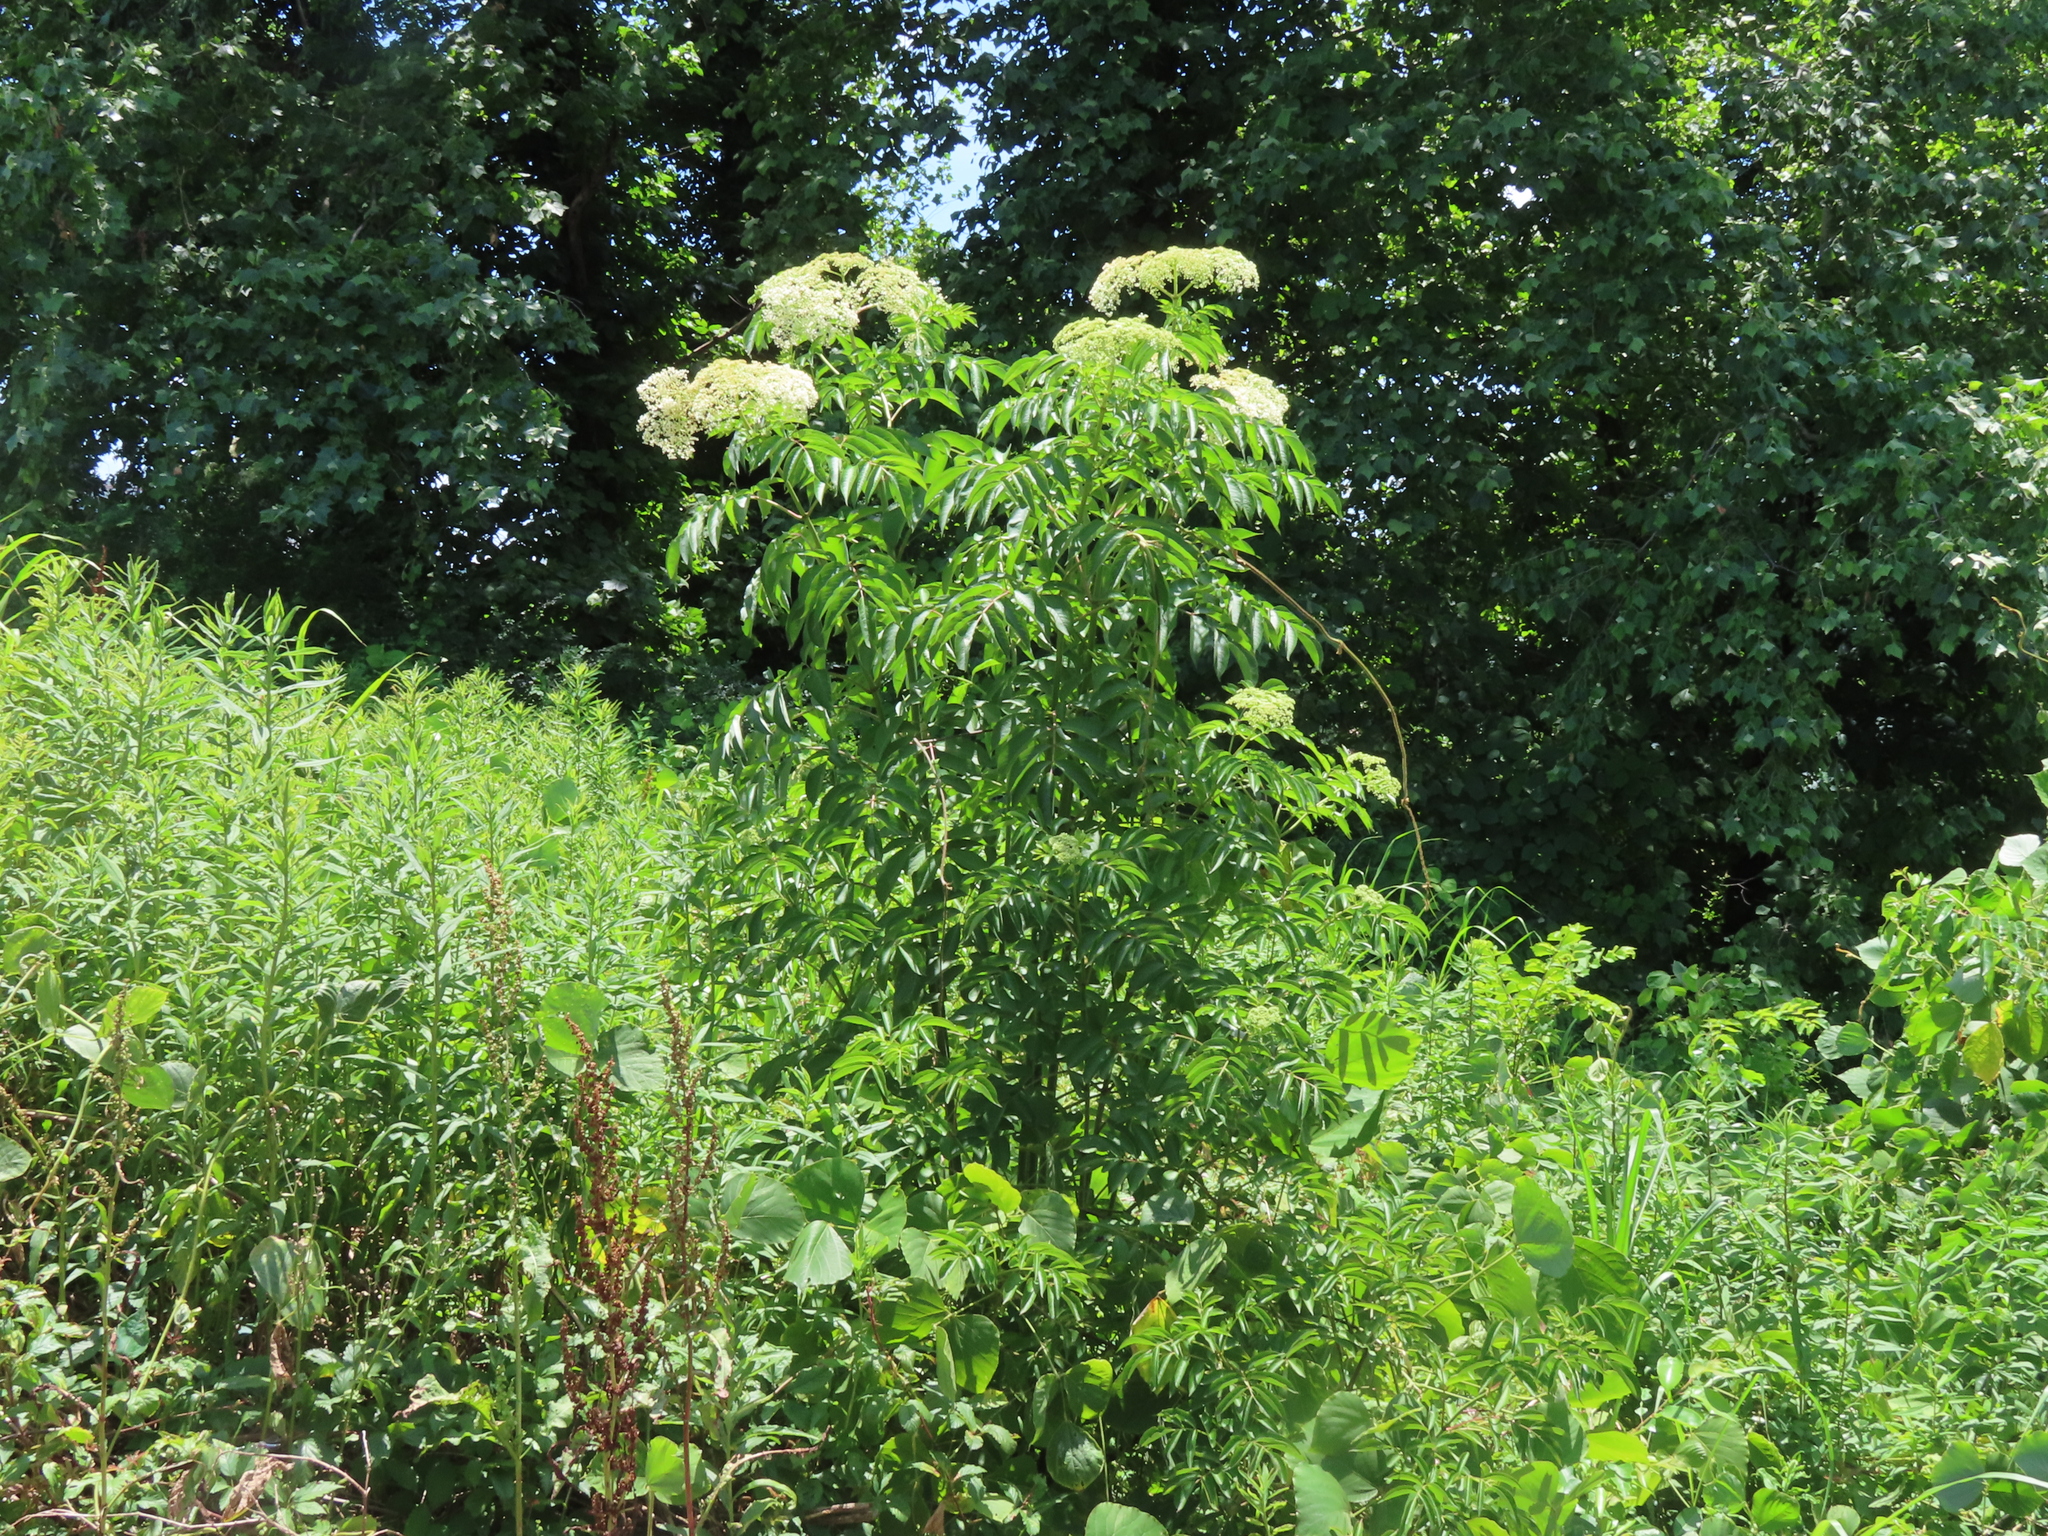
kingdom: Plantae
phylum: Tracheophyta
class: Magnoliopsida
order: Dipsacales
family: Viburnaceae
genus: Sambucus
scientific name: Sambucus canadensis
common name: American elder
